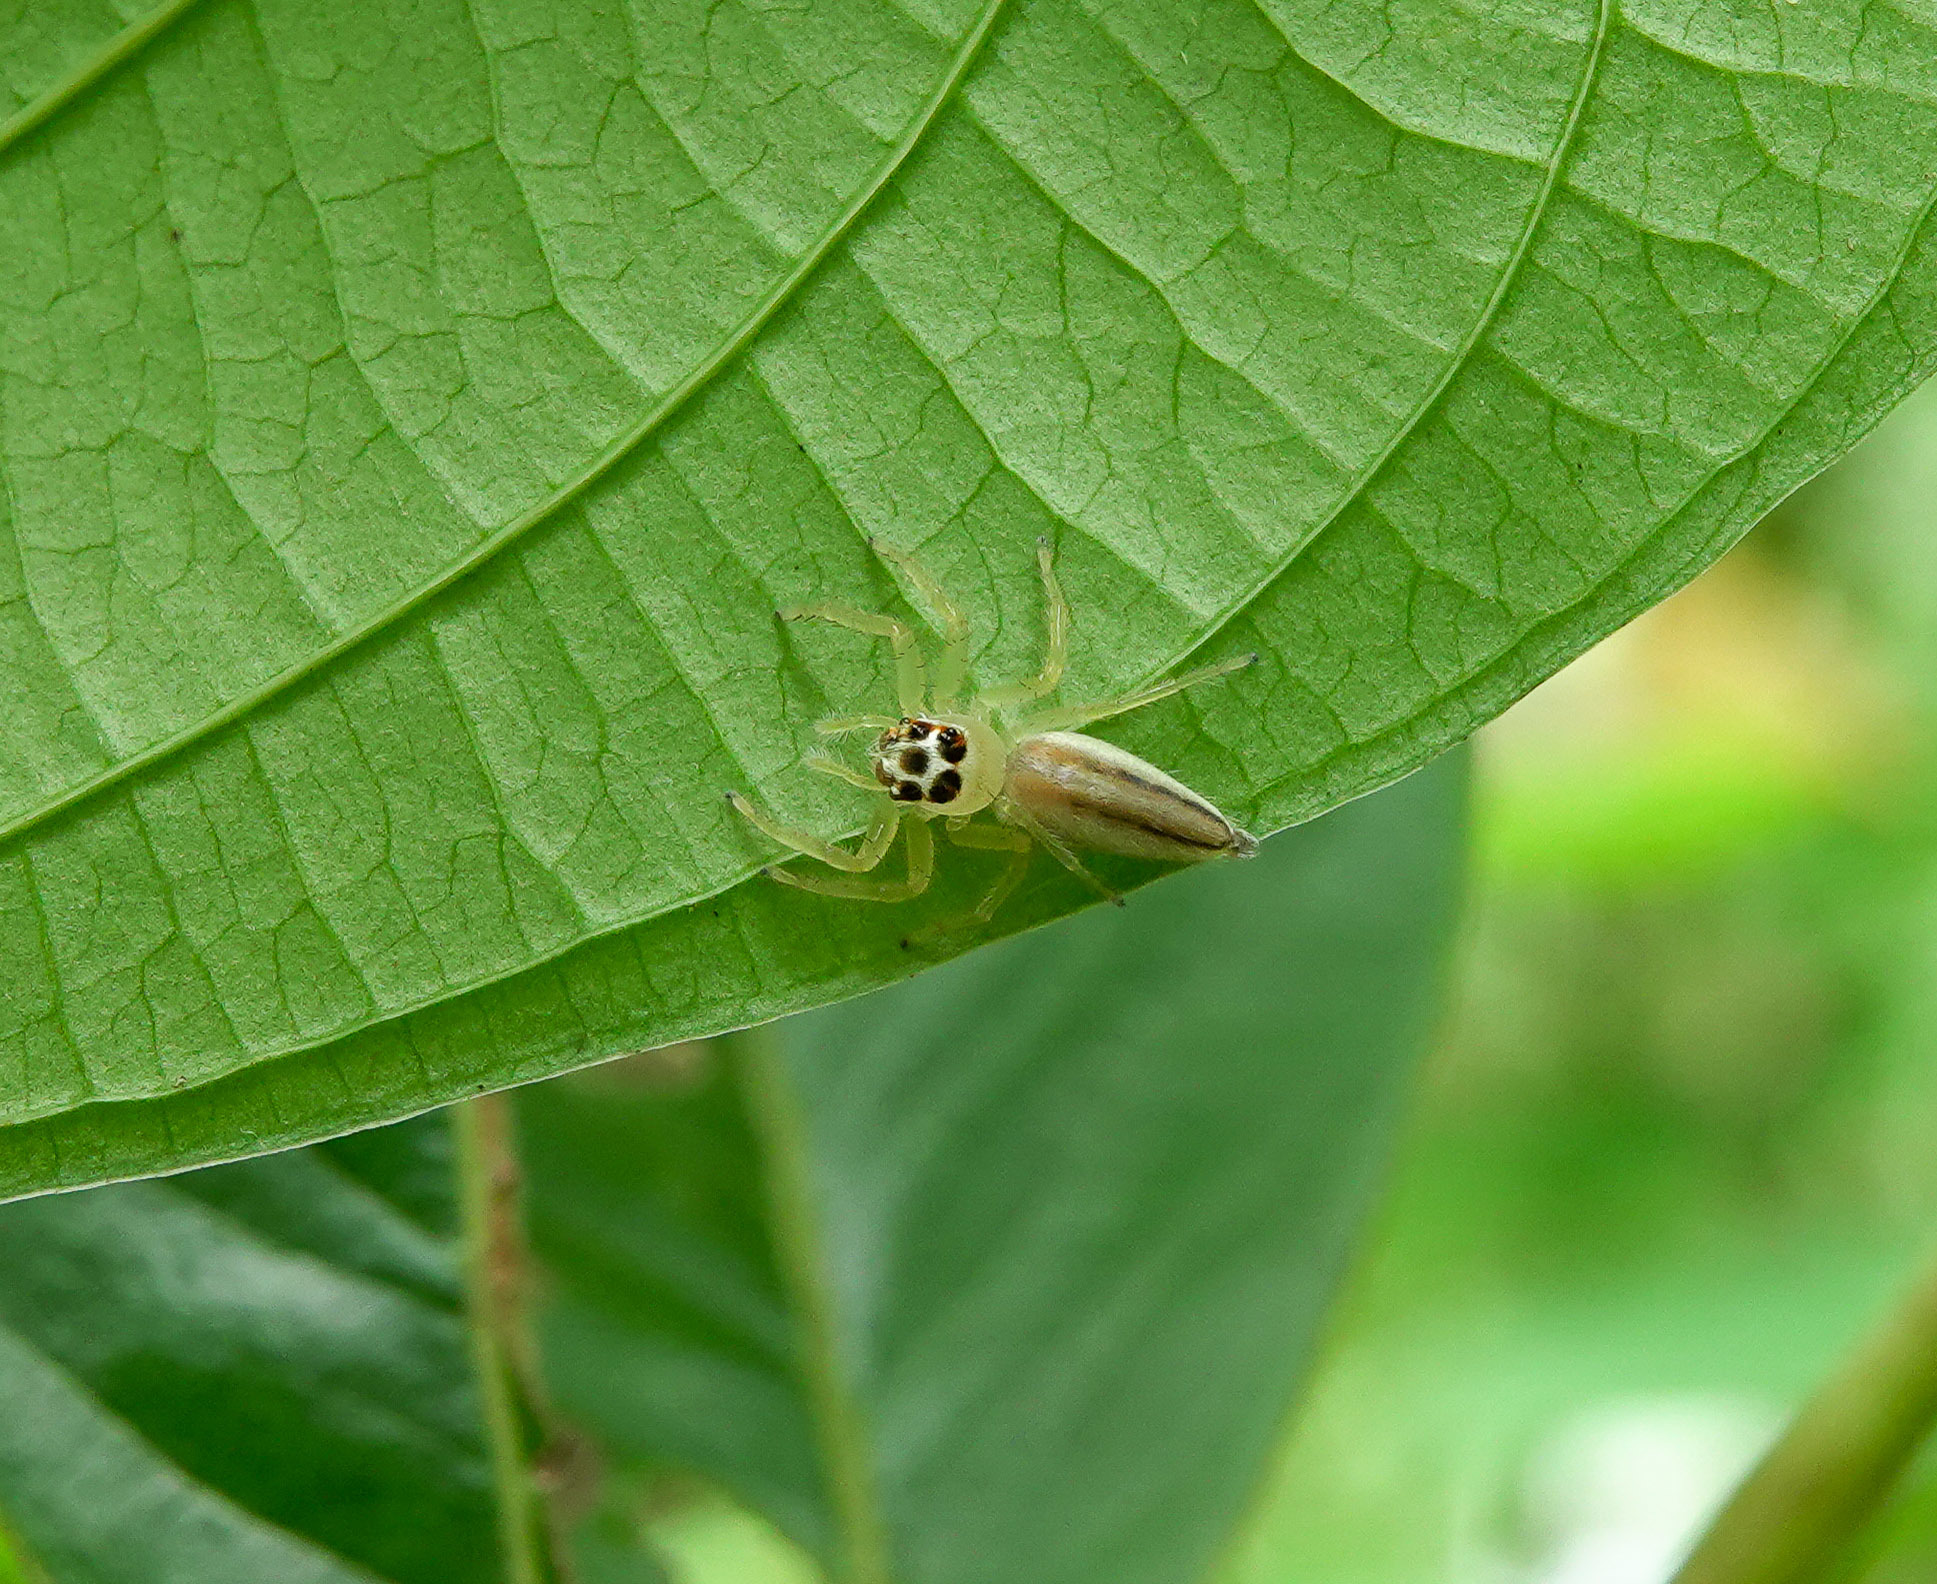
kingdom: Animalia
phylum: Arthropoda
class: Arachnida
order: Araneae
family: Salticidae
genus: Telamonia
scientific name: Telamonia dimidiata
